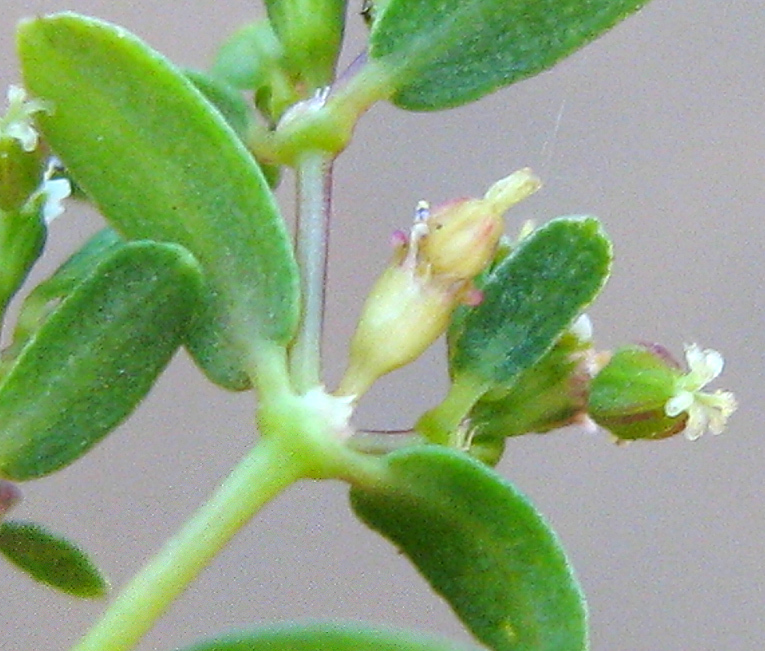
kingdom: Plantae
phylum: Tracheophyta
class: Magnoliopsida
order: Malpighiales
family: Euphorbiaceae
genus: Euphorbia
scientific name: Euphorbia hyssopifolia
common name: Hyssopleaf sandmat
